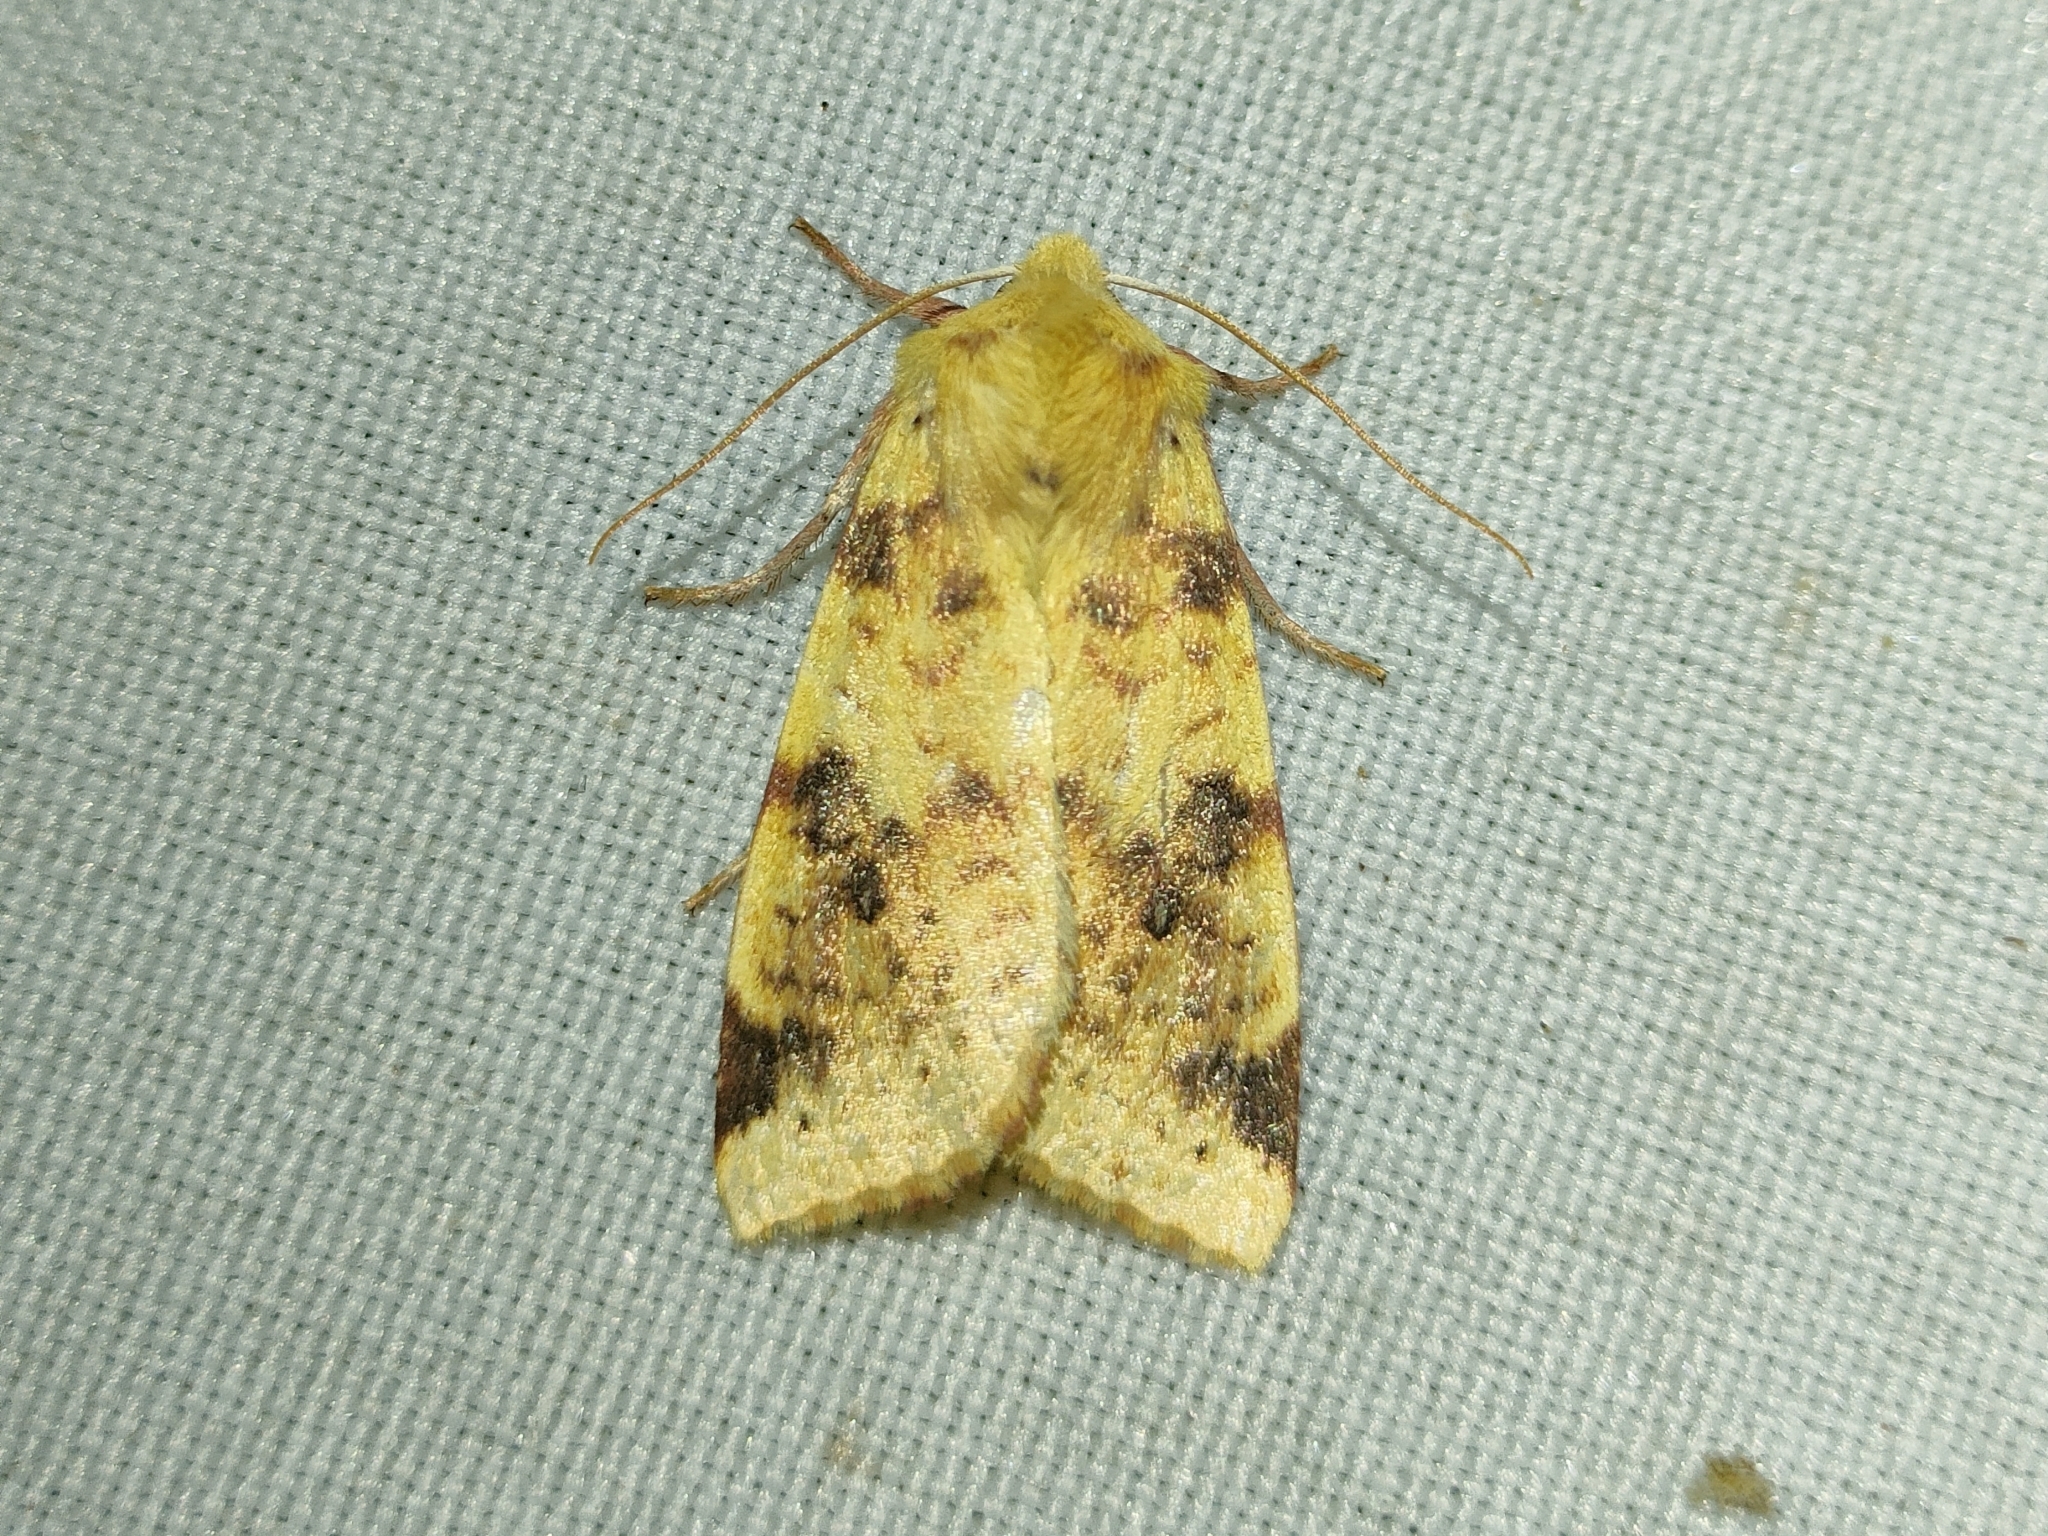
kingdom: Animalia
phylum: Arthropoda
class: Insecta
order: Lepidoptera
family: Noctuidae
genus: Xanthia
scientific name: Xanthia icteritia
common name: The sallow
